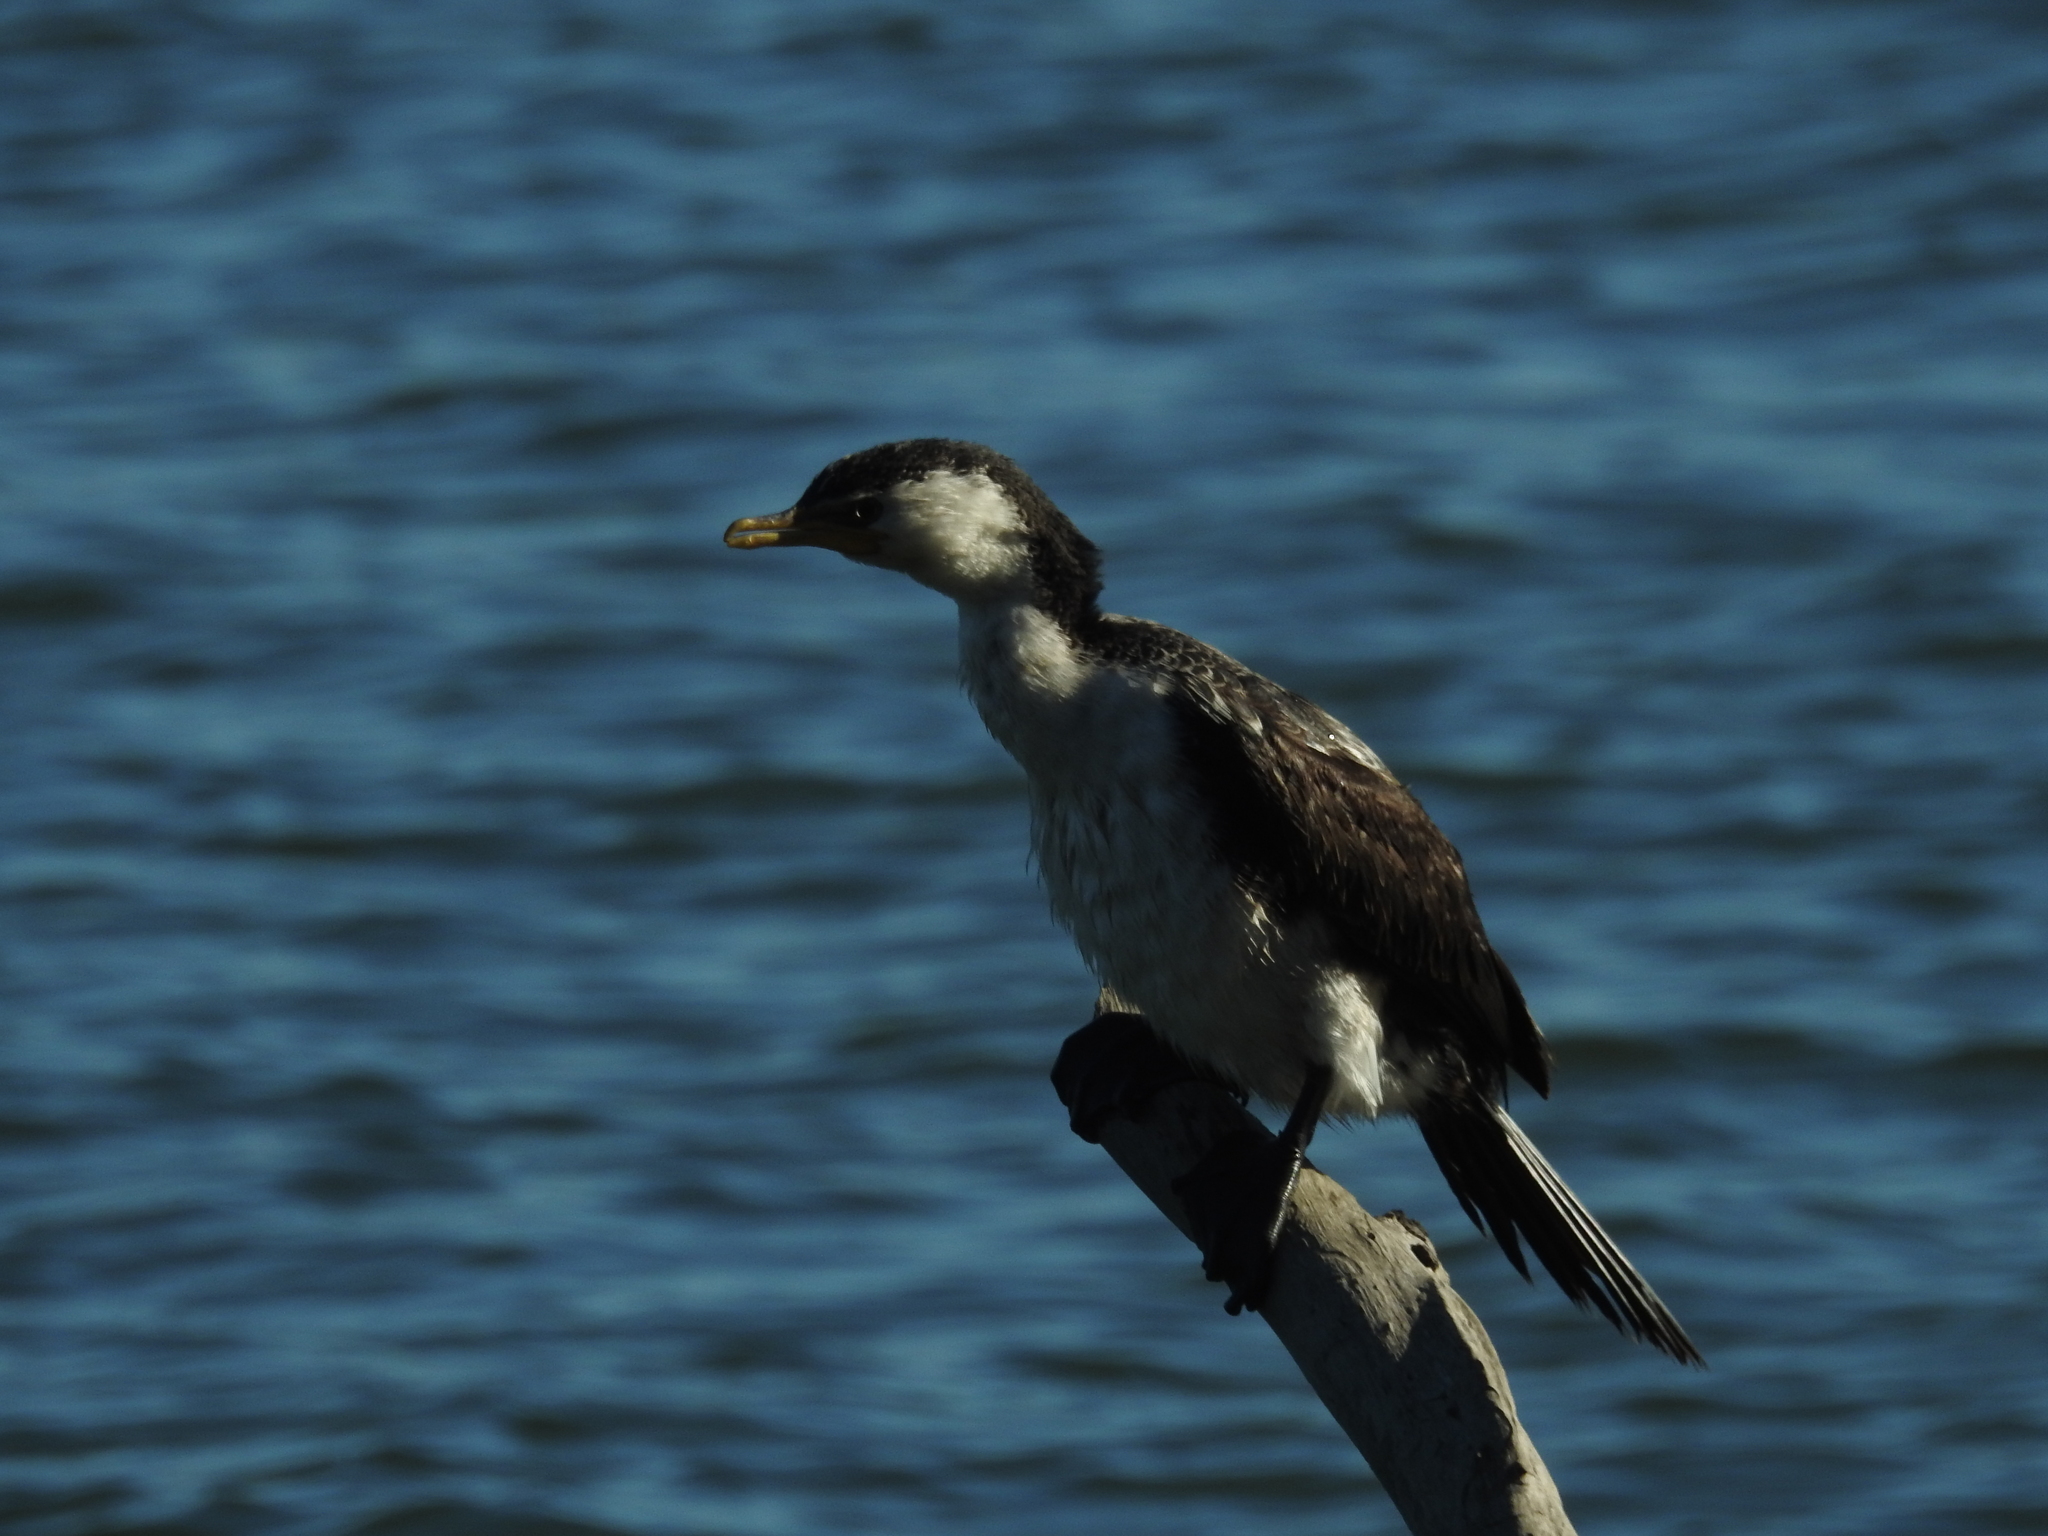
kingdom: Animalia
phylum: Chordata
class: Aves
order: Suliformes
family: Phalacrocoracidae
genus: Microcarbo
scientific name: Microcarbo melanoleucos
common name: Little pied cormorant
